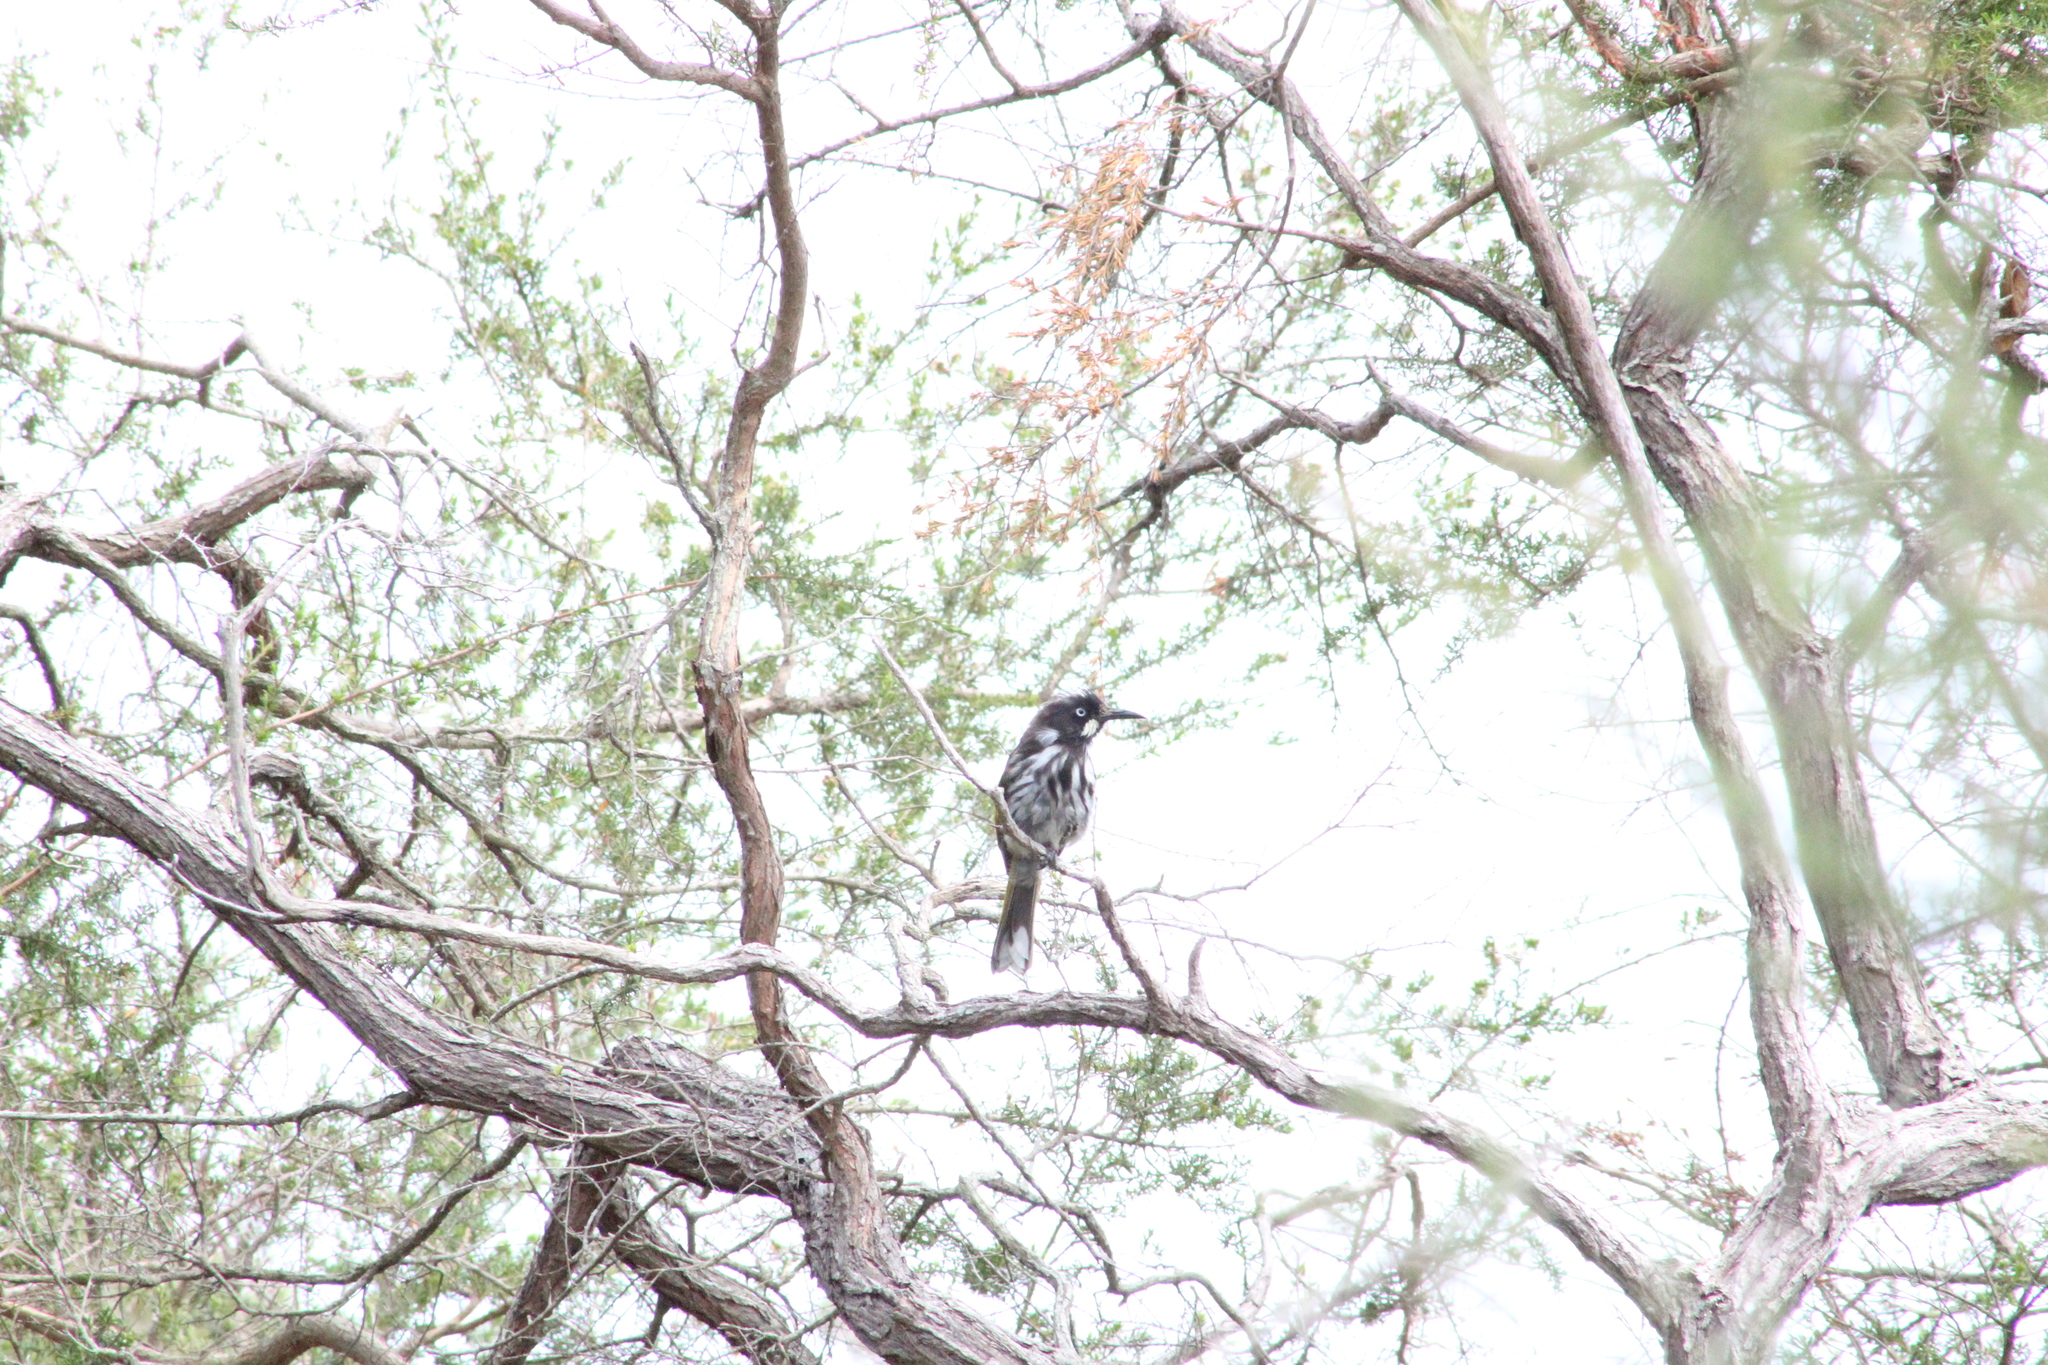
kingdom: Animalia
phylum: Chordata
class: Aves
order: Passeriformes
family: Meliphagidae
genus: Phylidonyris
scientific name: Phylidonyris novaehollandiae
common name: New holland honeyeater
